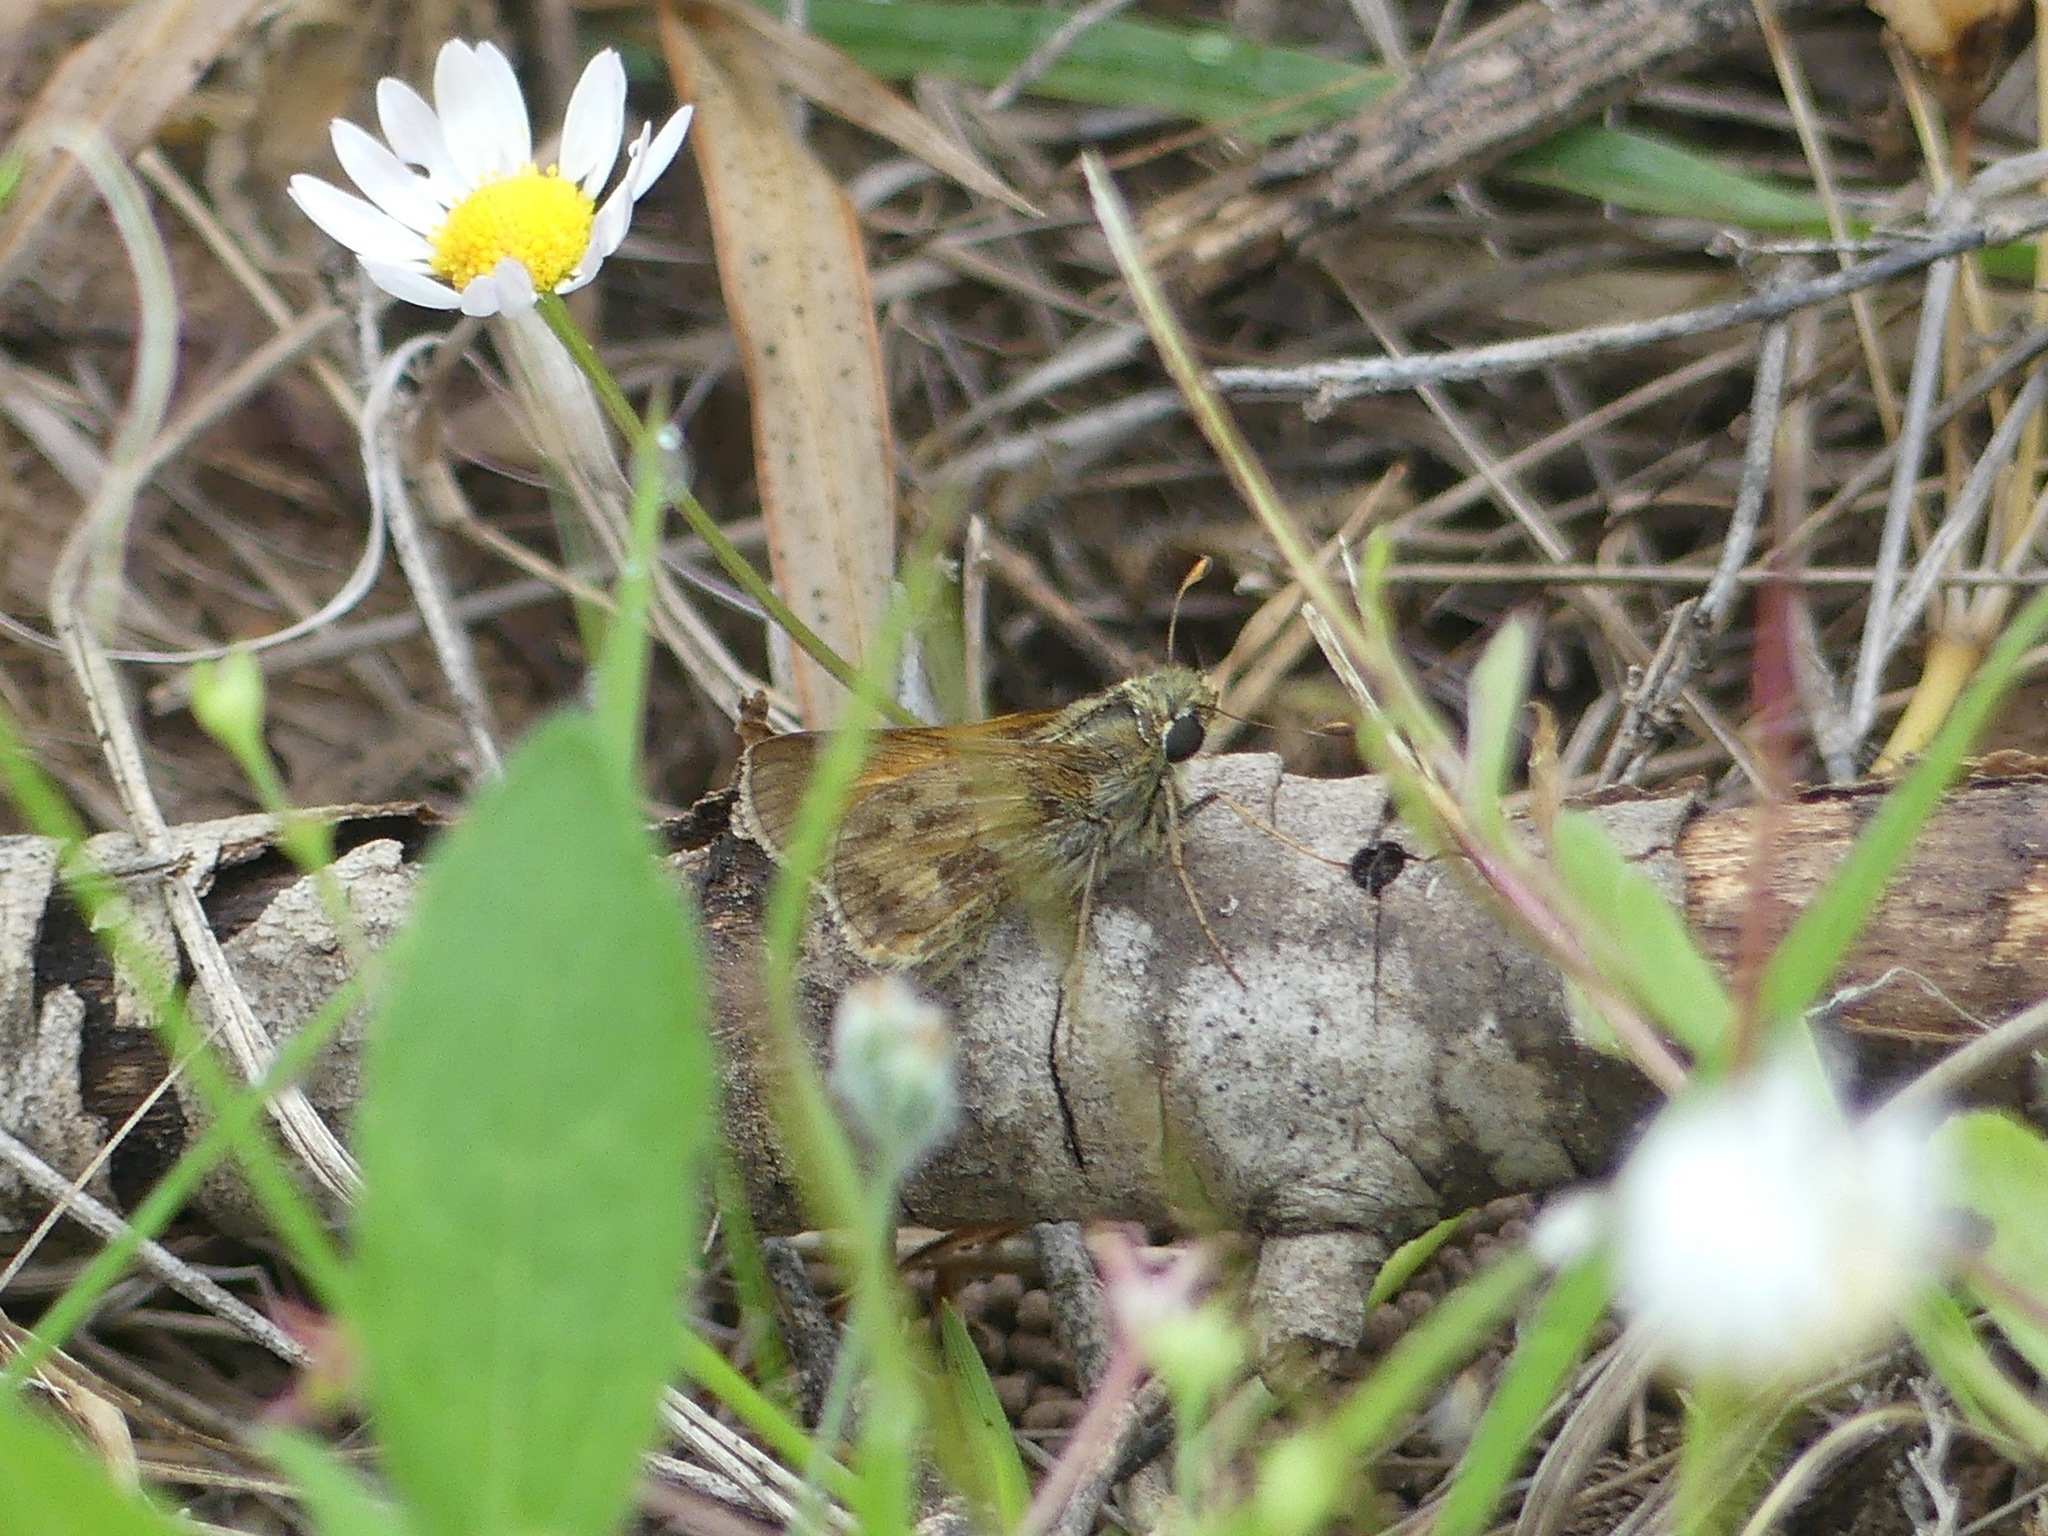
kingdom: Animalia
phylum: Arthropoda
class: Insecta
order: Lepidoptera
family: Hesperiidae
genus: Atalopedes
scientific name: Atalopedes
